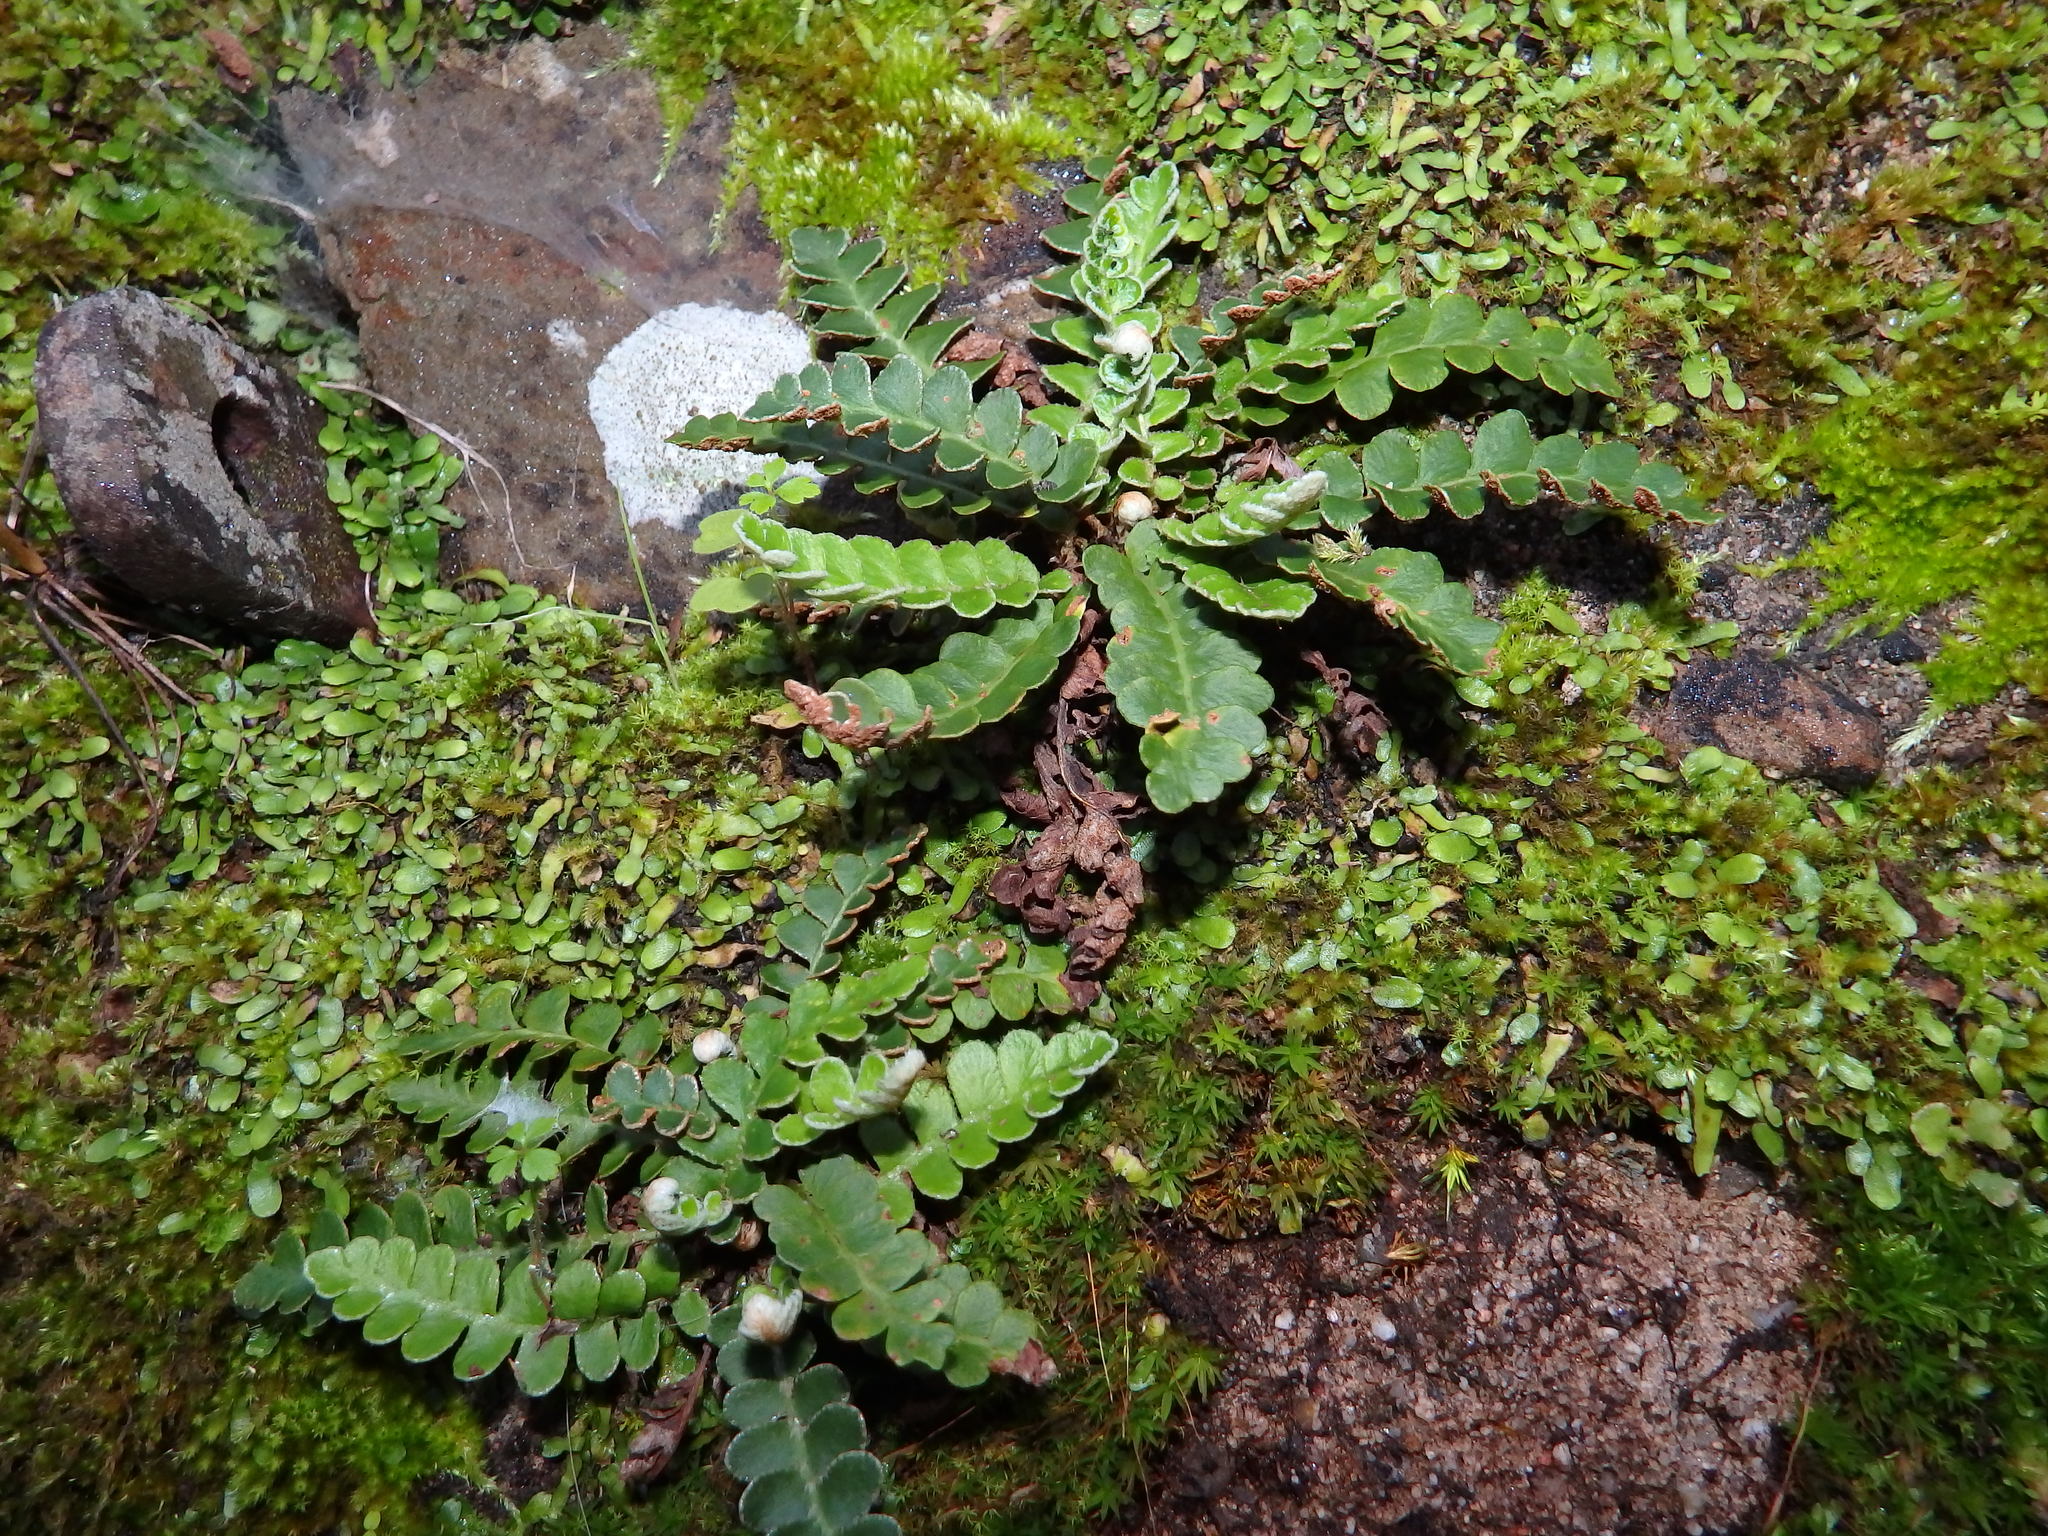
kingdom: Plantae
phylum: Tracheophyta
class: Polypodiopsida
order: Polypodiales
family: Aspleniaceae
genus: Asplenium
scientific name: Asplenium ceterach
